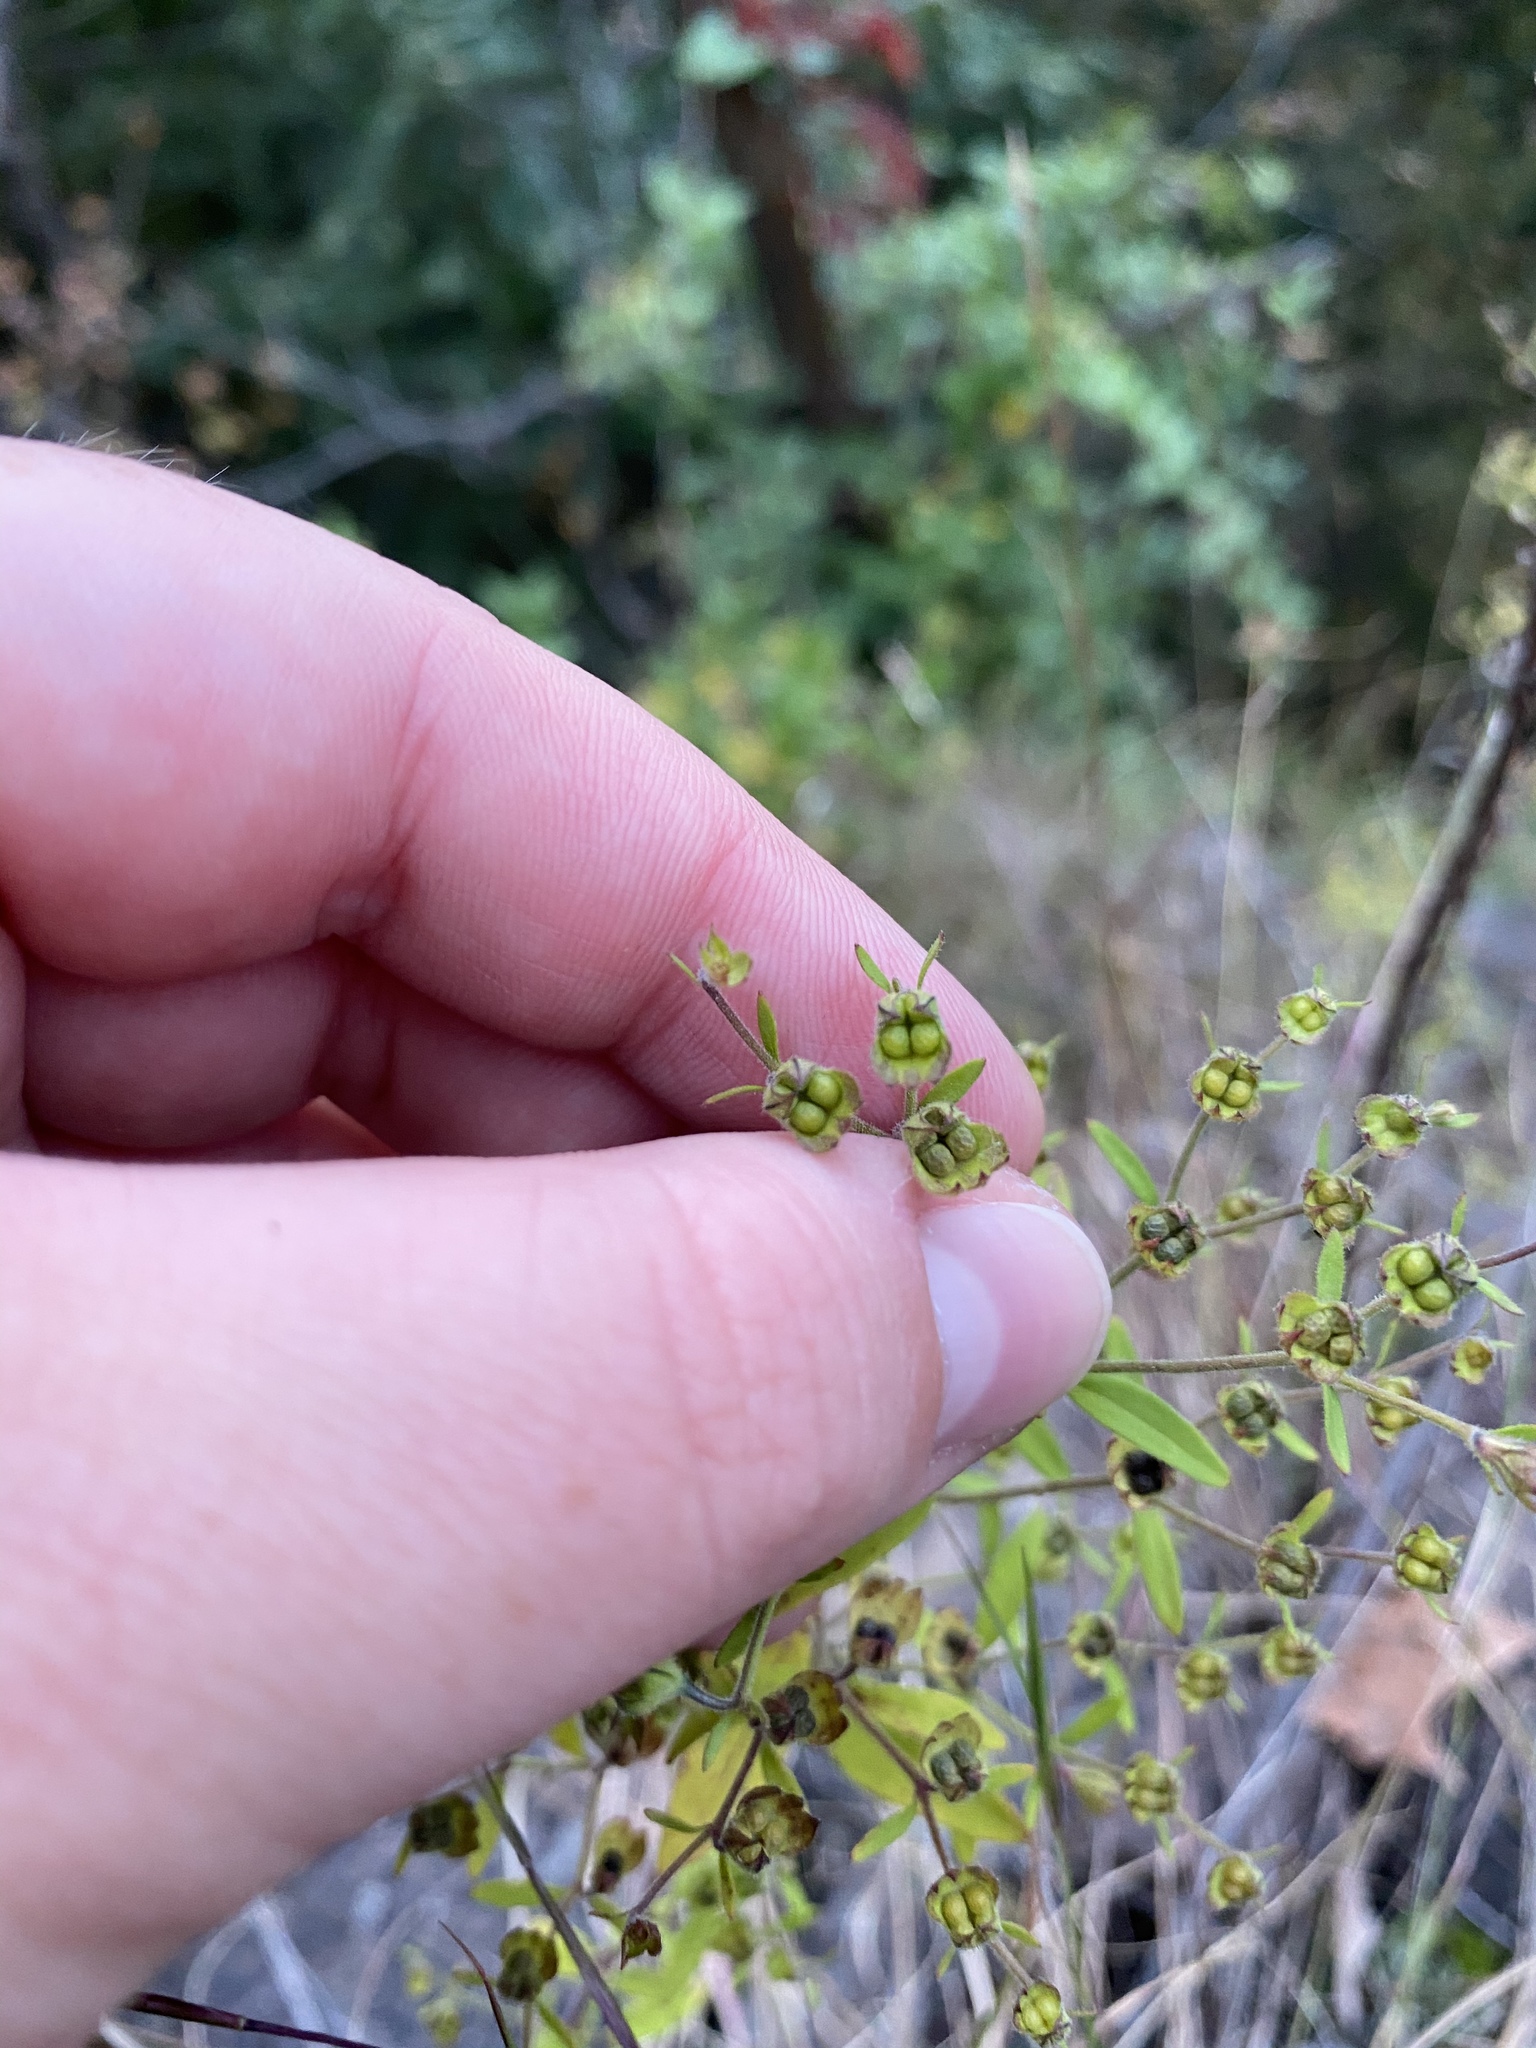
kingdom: Plantae
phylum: Tracheophyta
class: Magnoliopsida
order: Lamiales
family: Lamiaceae
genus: Trichostema
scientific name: Trichostema dichotomum
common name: Bastard pennyroyal
